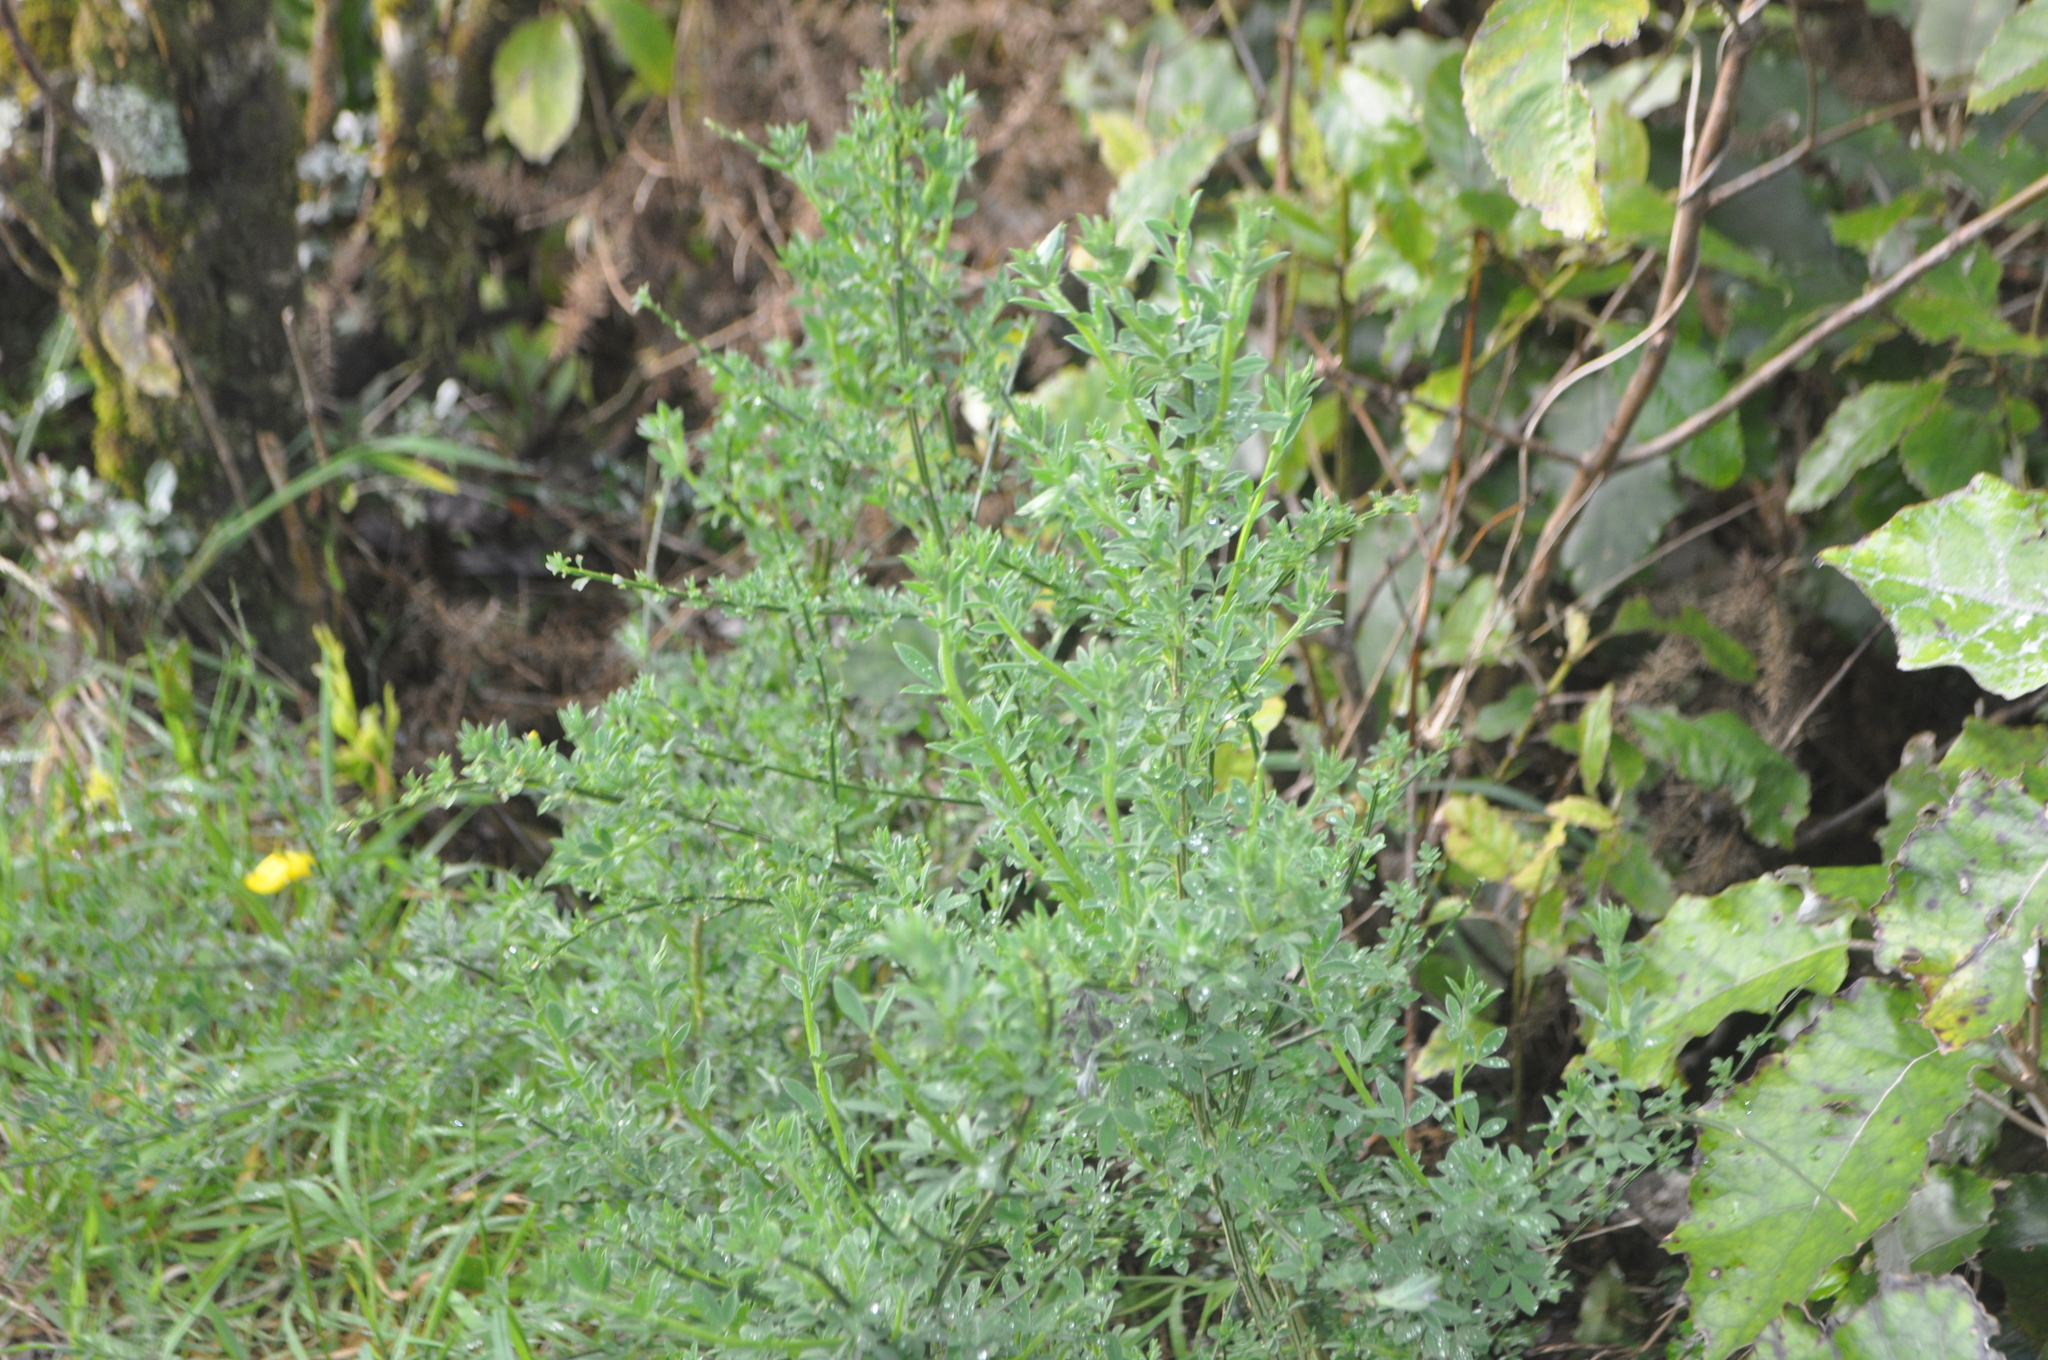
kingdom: Plantae
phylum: Tracheophyta
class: Magnoliopsida
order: Fabales
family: Fabaceae
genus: Genista
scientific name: Genista monspessulana
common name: Montpellier broom
